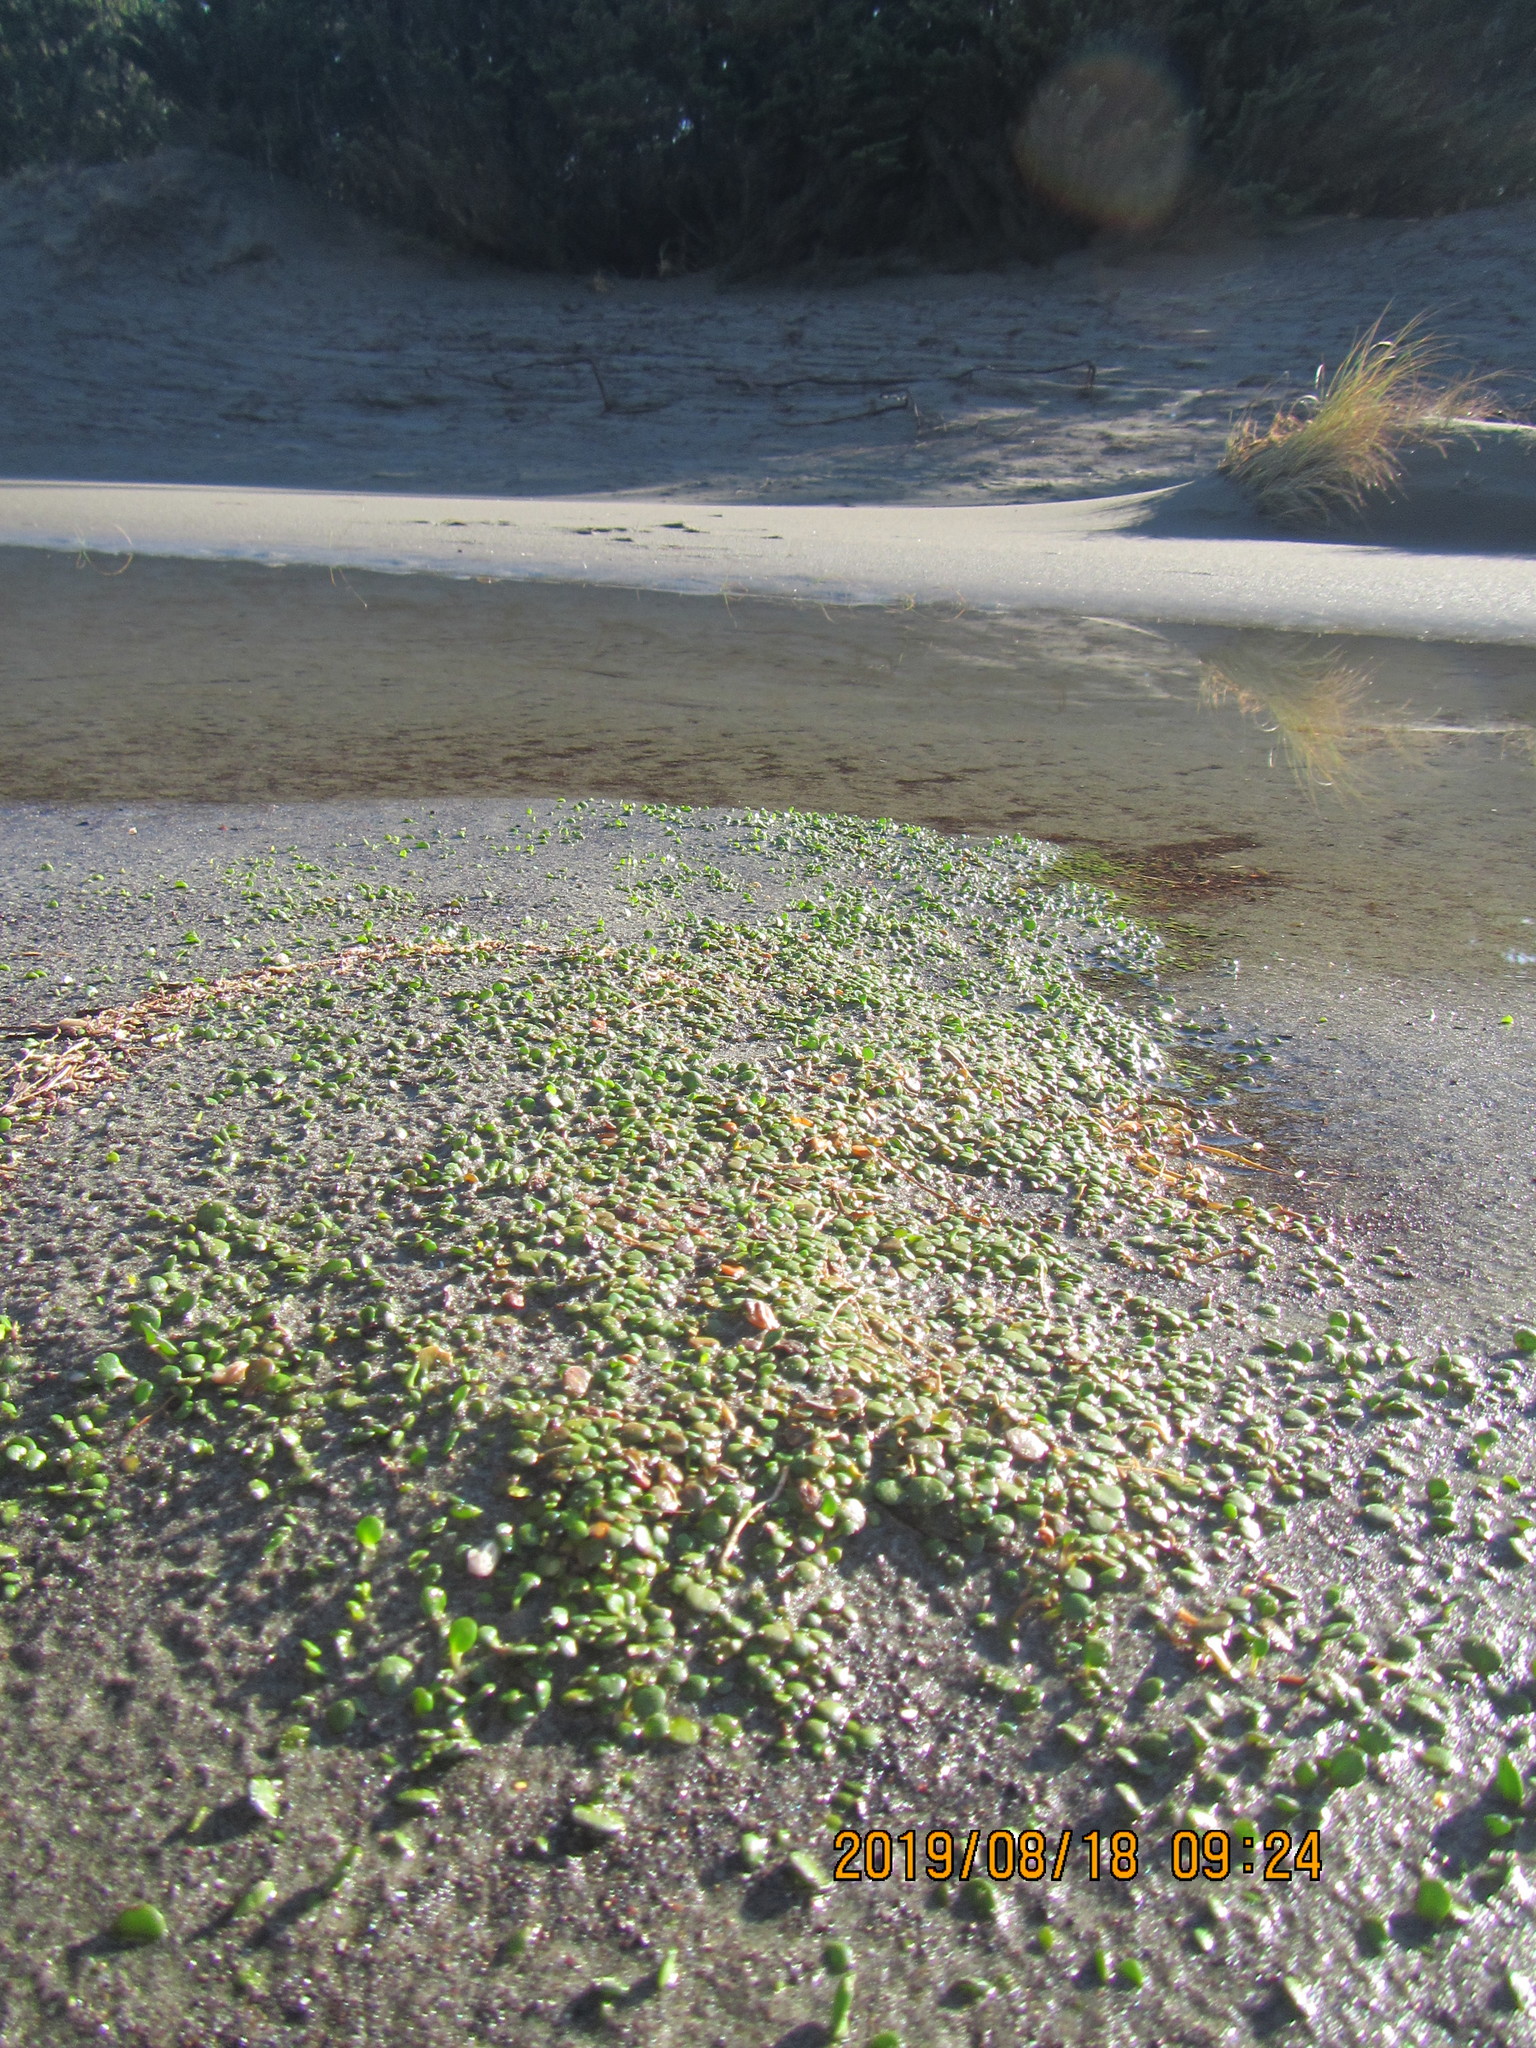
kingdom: Plantae
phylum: Tracheophyta
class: Magnoliopsida
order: Asterales
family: Goodeniaceae
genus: Goodenia
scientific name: Goodenia heenanii
